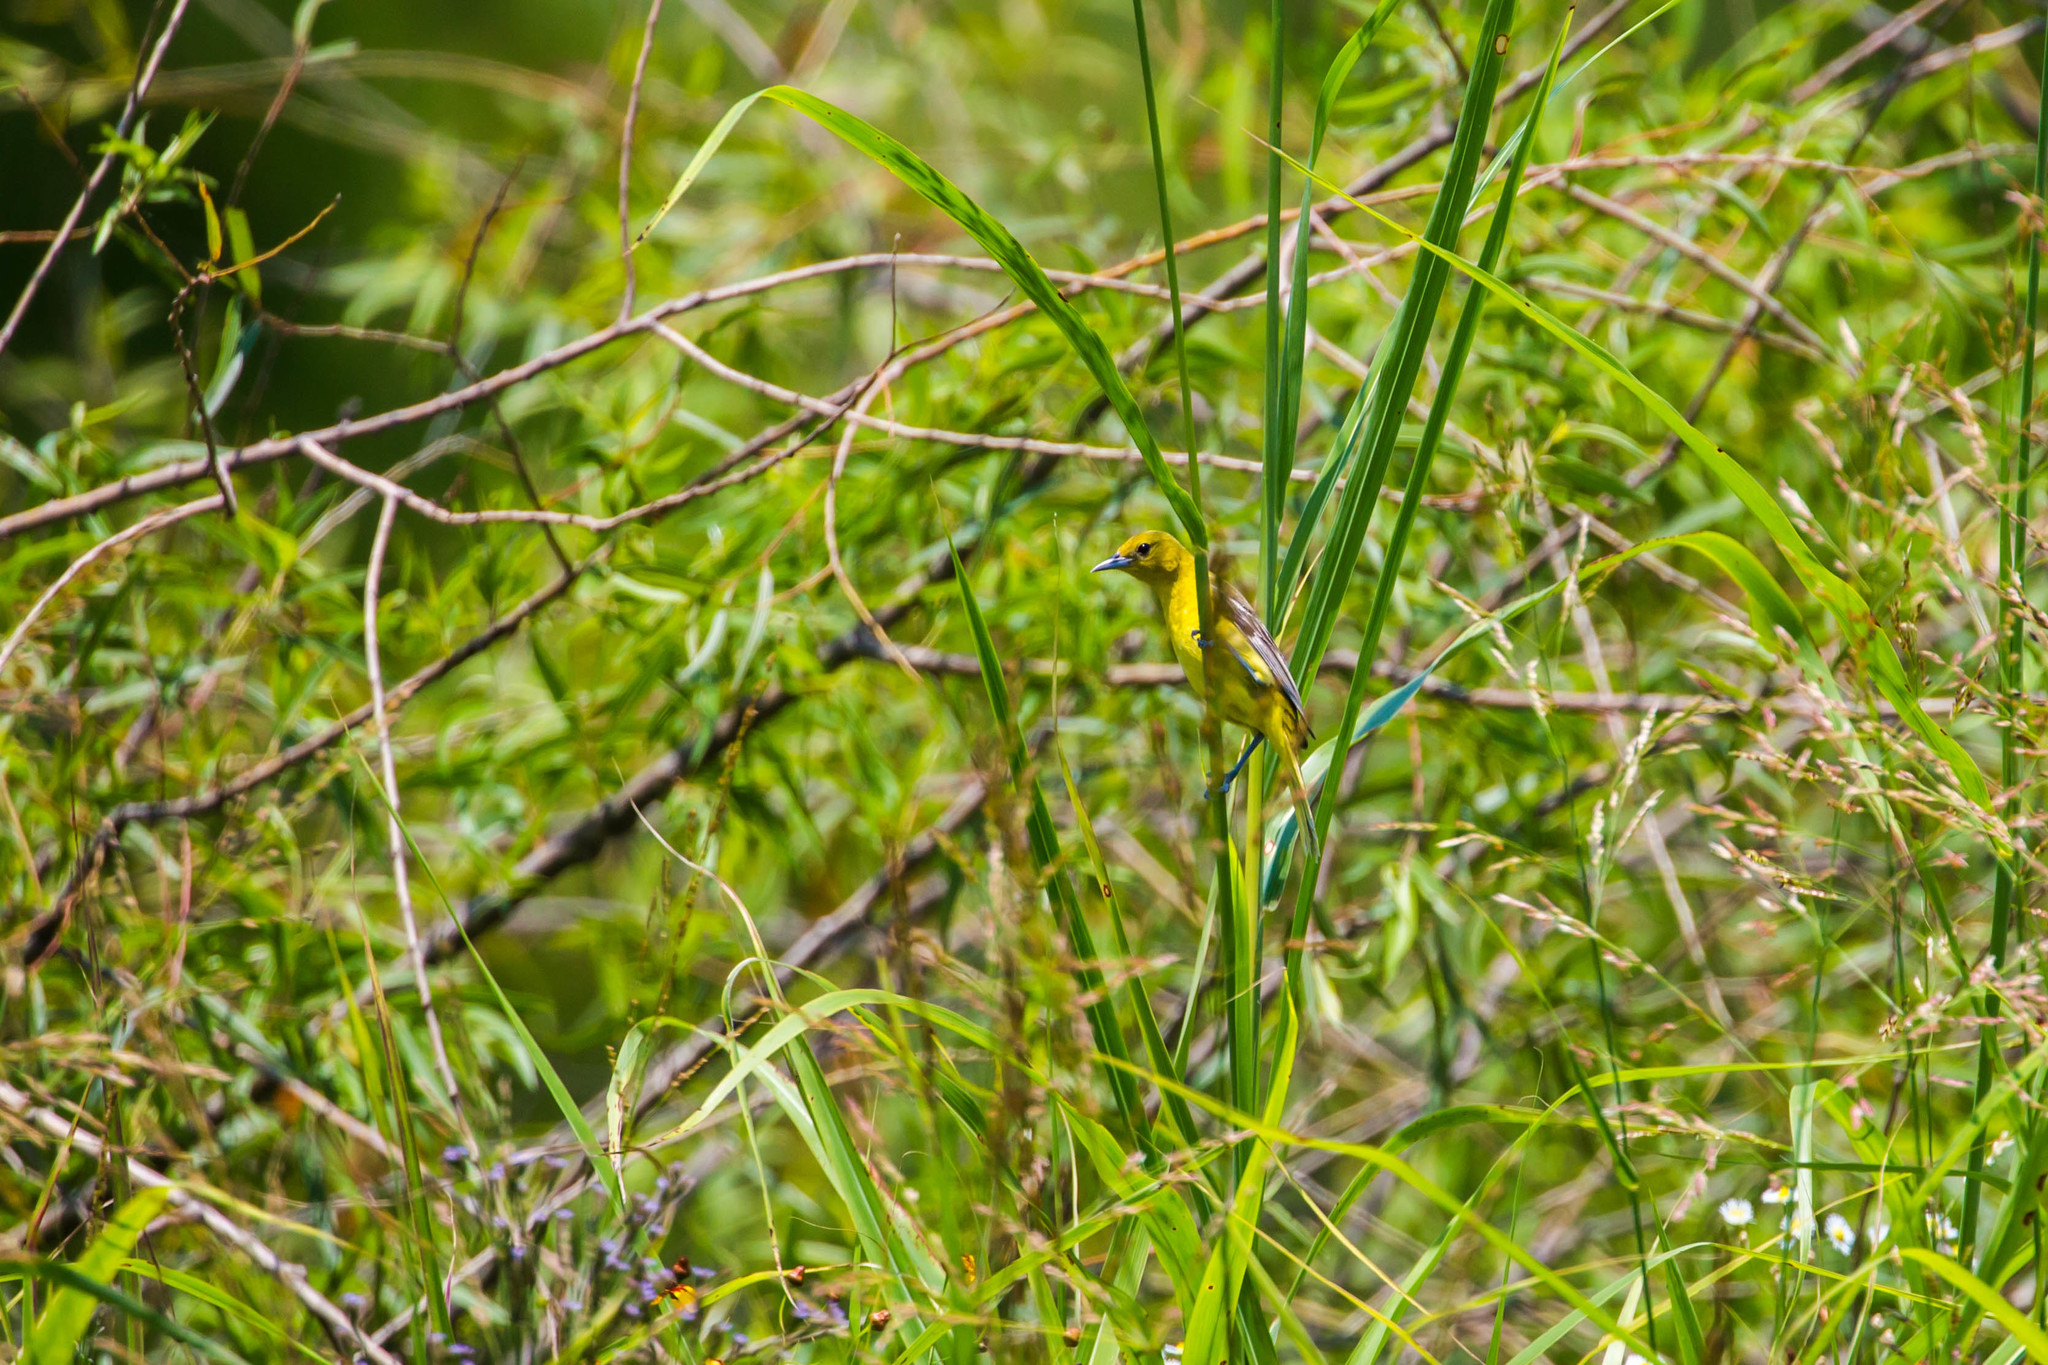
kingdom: Animalia
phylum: Chordata
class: Aves
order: Passeriformes
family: Icteridae
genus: Icterus
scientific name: Icterus spurius
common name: Orchard oriole
